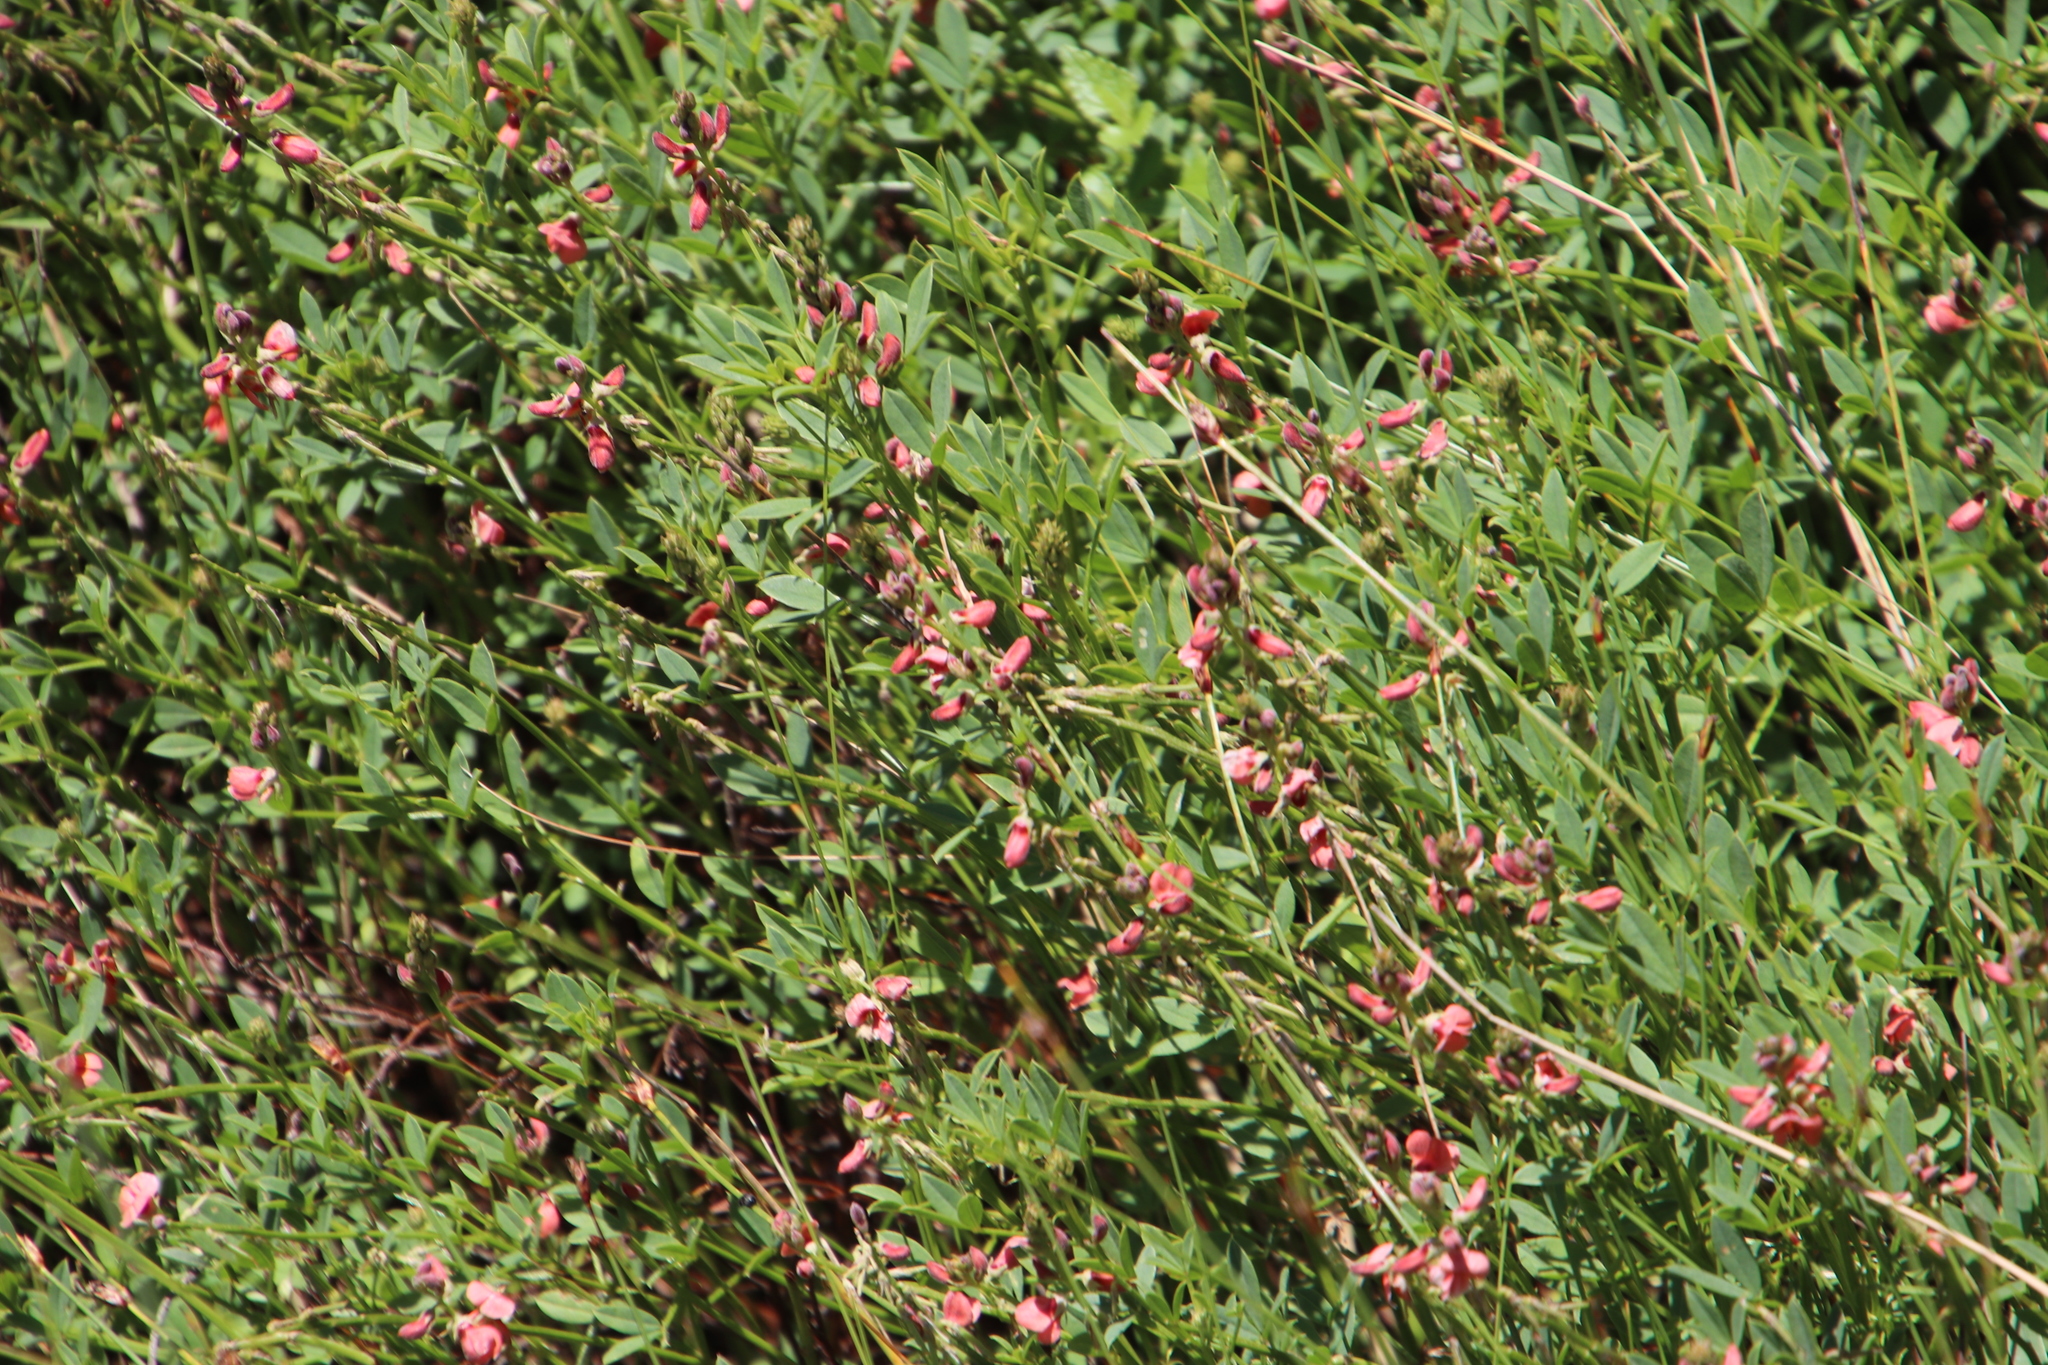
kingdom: Plantae
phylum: Tracheophyta
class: Magnoliopsida
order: Fabales
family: Fabaceae
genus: Indigofera
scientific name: Indigofera heterophylla
